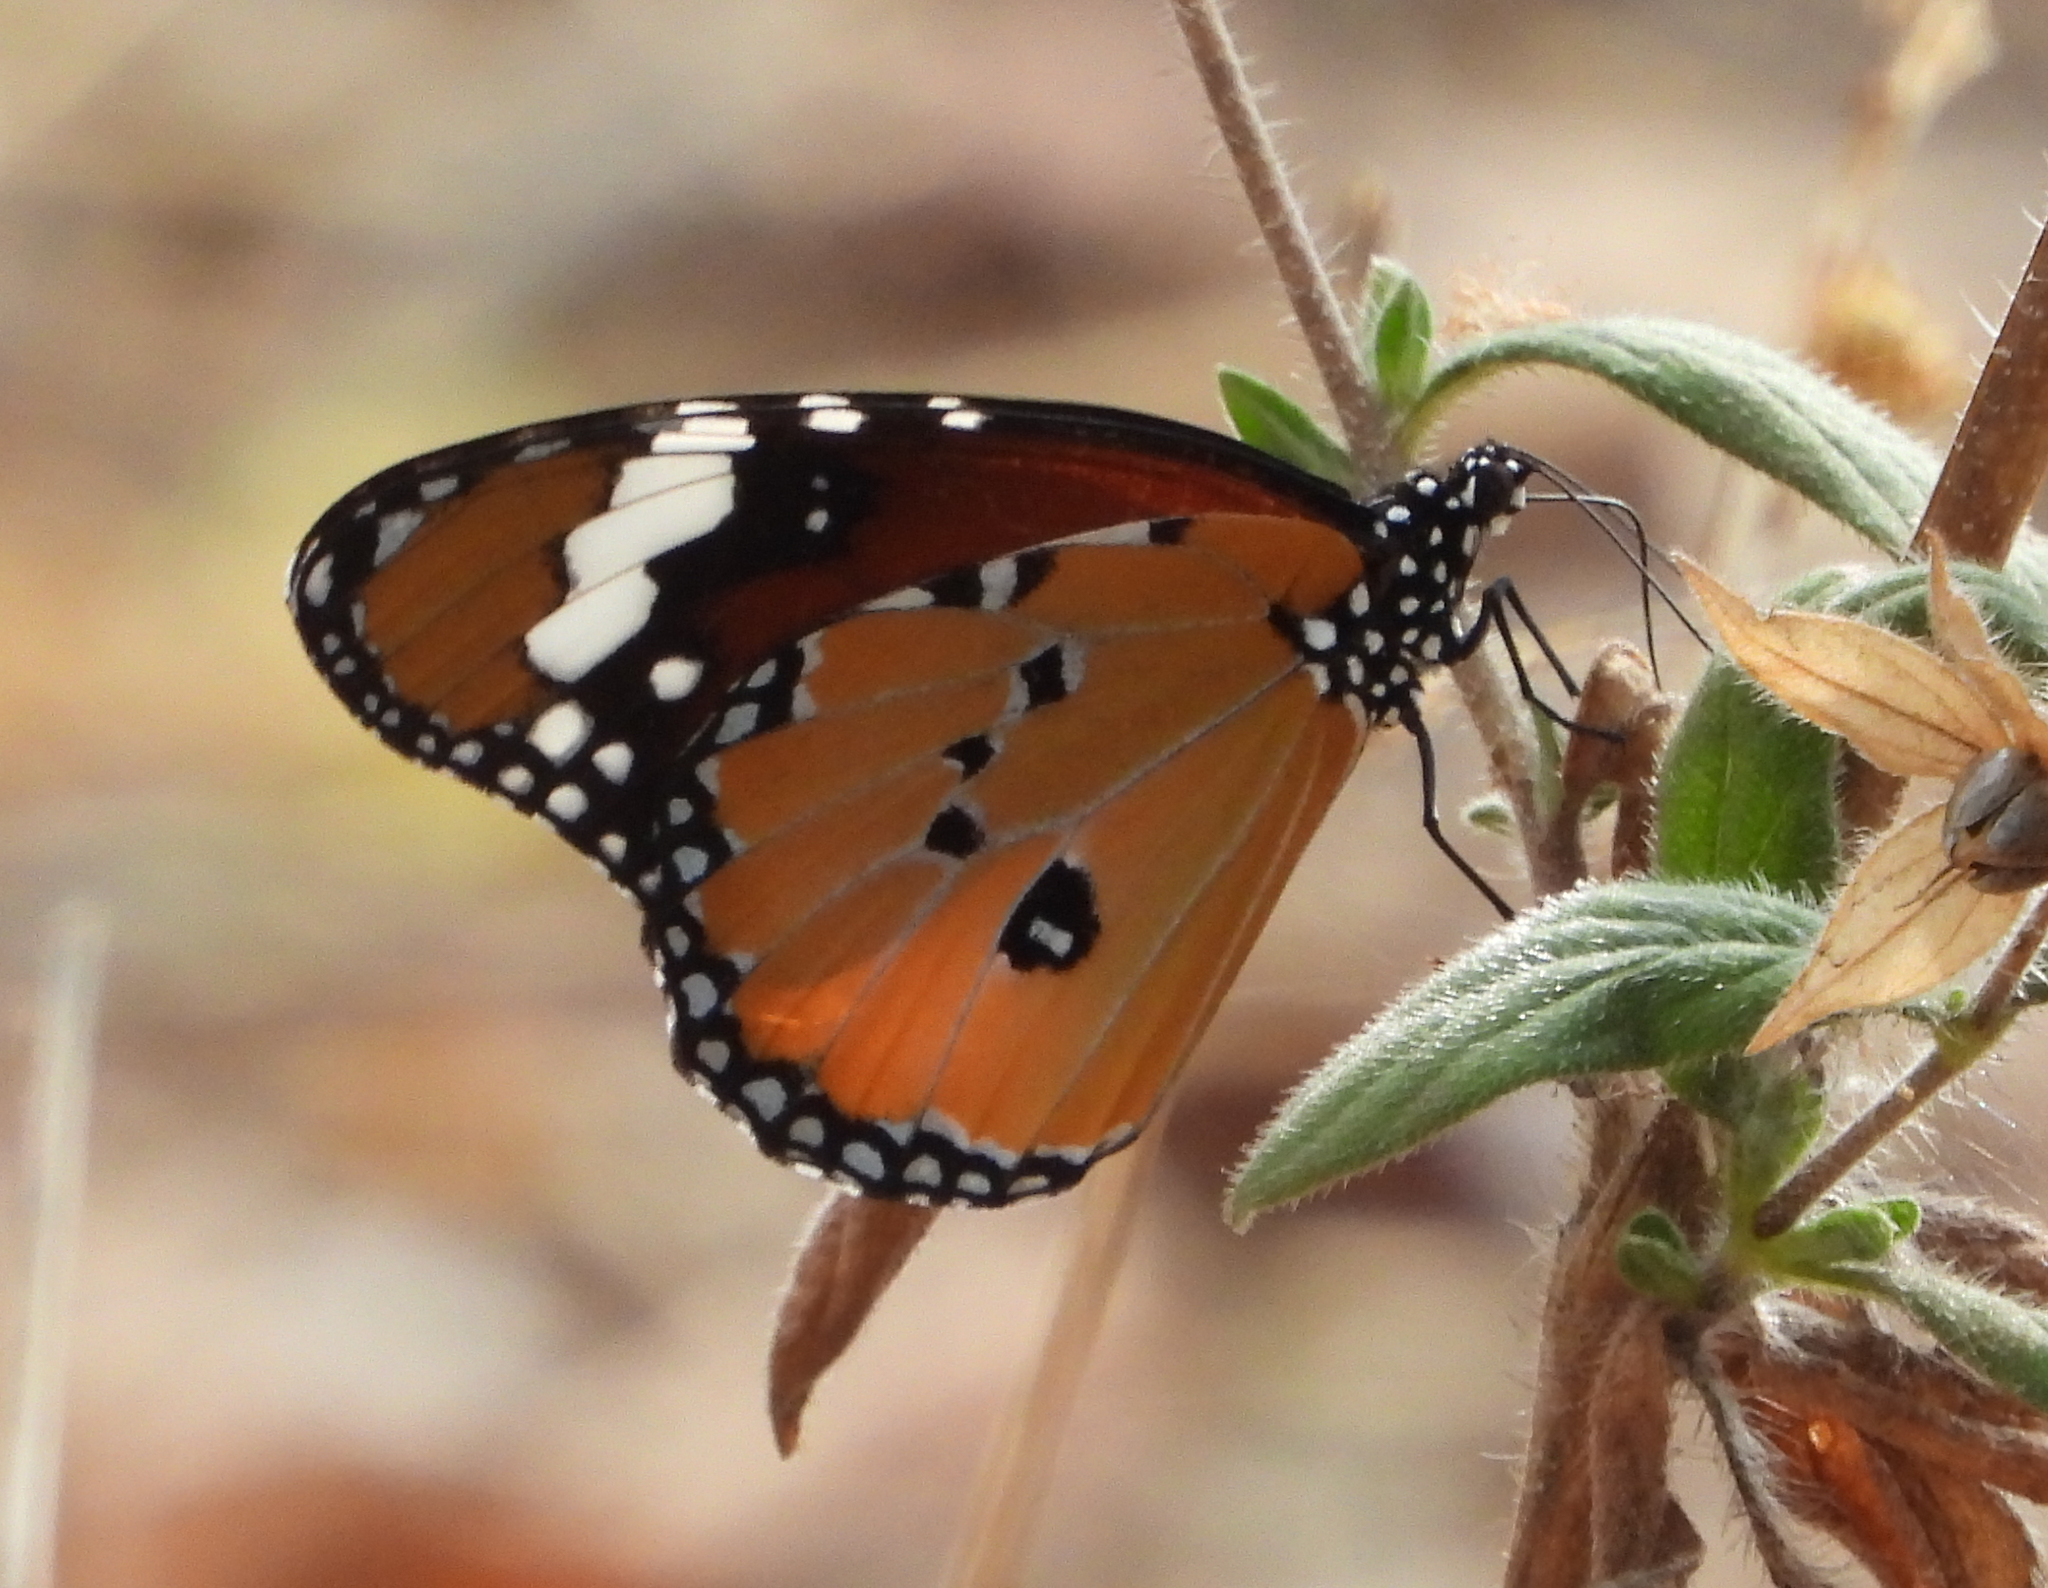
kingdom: Animalia
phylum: Arthropoda
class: Insecta
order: Lepidoptera
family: Nymphalidae
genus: Danaus
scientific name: Danaus chrysippus
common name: Plain tiger
